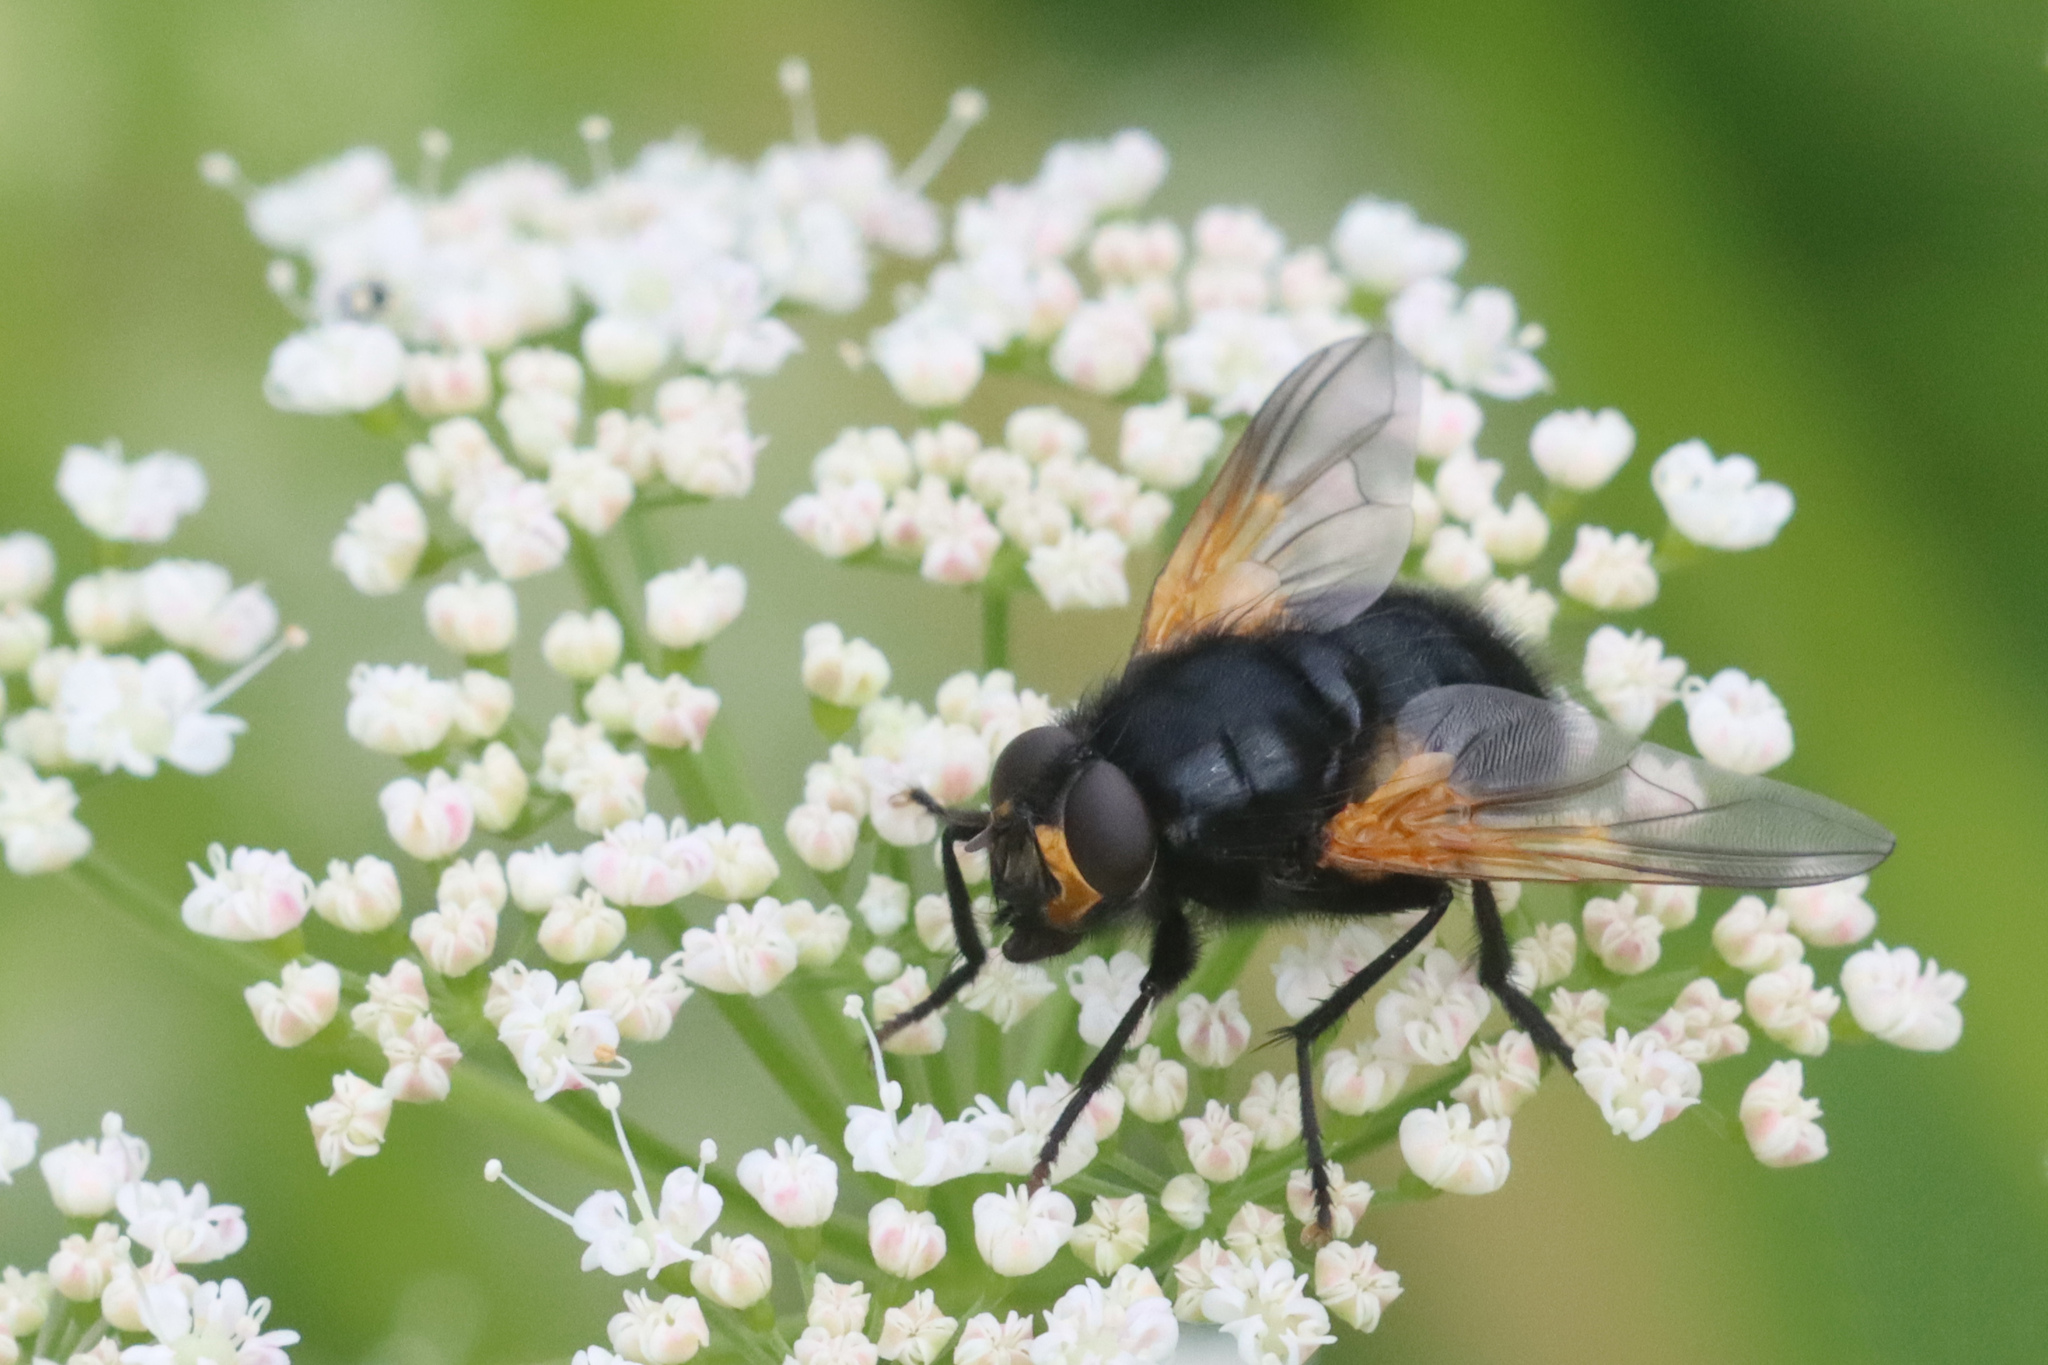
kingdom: Animalia
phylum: Arthropoda
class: Insecta
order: Diptera
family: Muscidae
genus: Mesembrina
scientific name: Mesembrina meridiana
